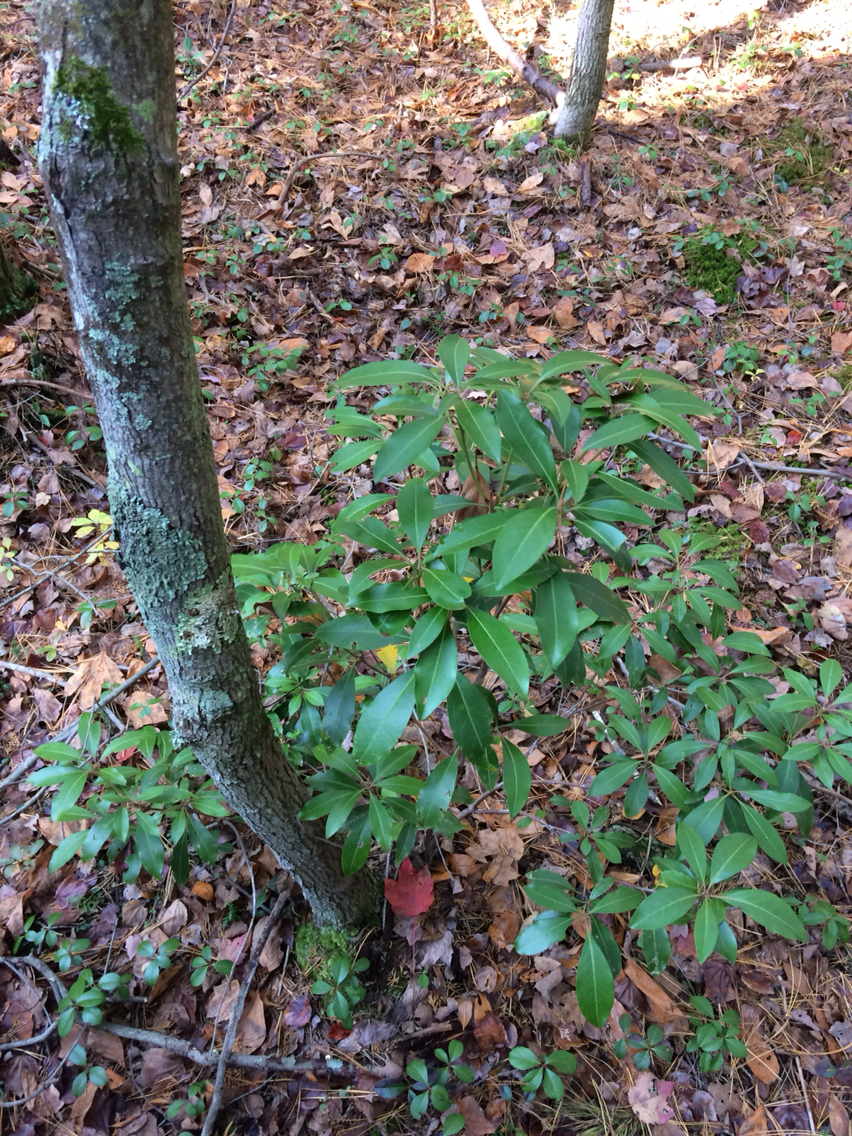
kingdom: Plantae
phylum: Tracheophyta
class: Magnoliopsida
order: Ericales
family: Ericaceae
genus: Kalmia
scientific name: Kalmia latifolia
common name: Mountain-laurel
